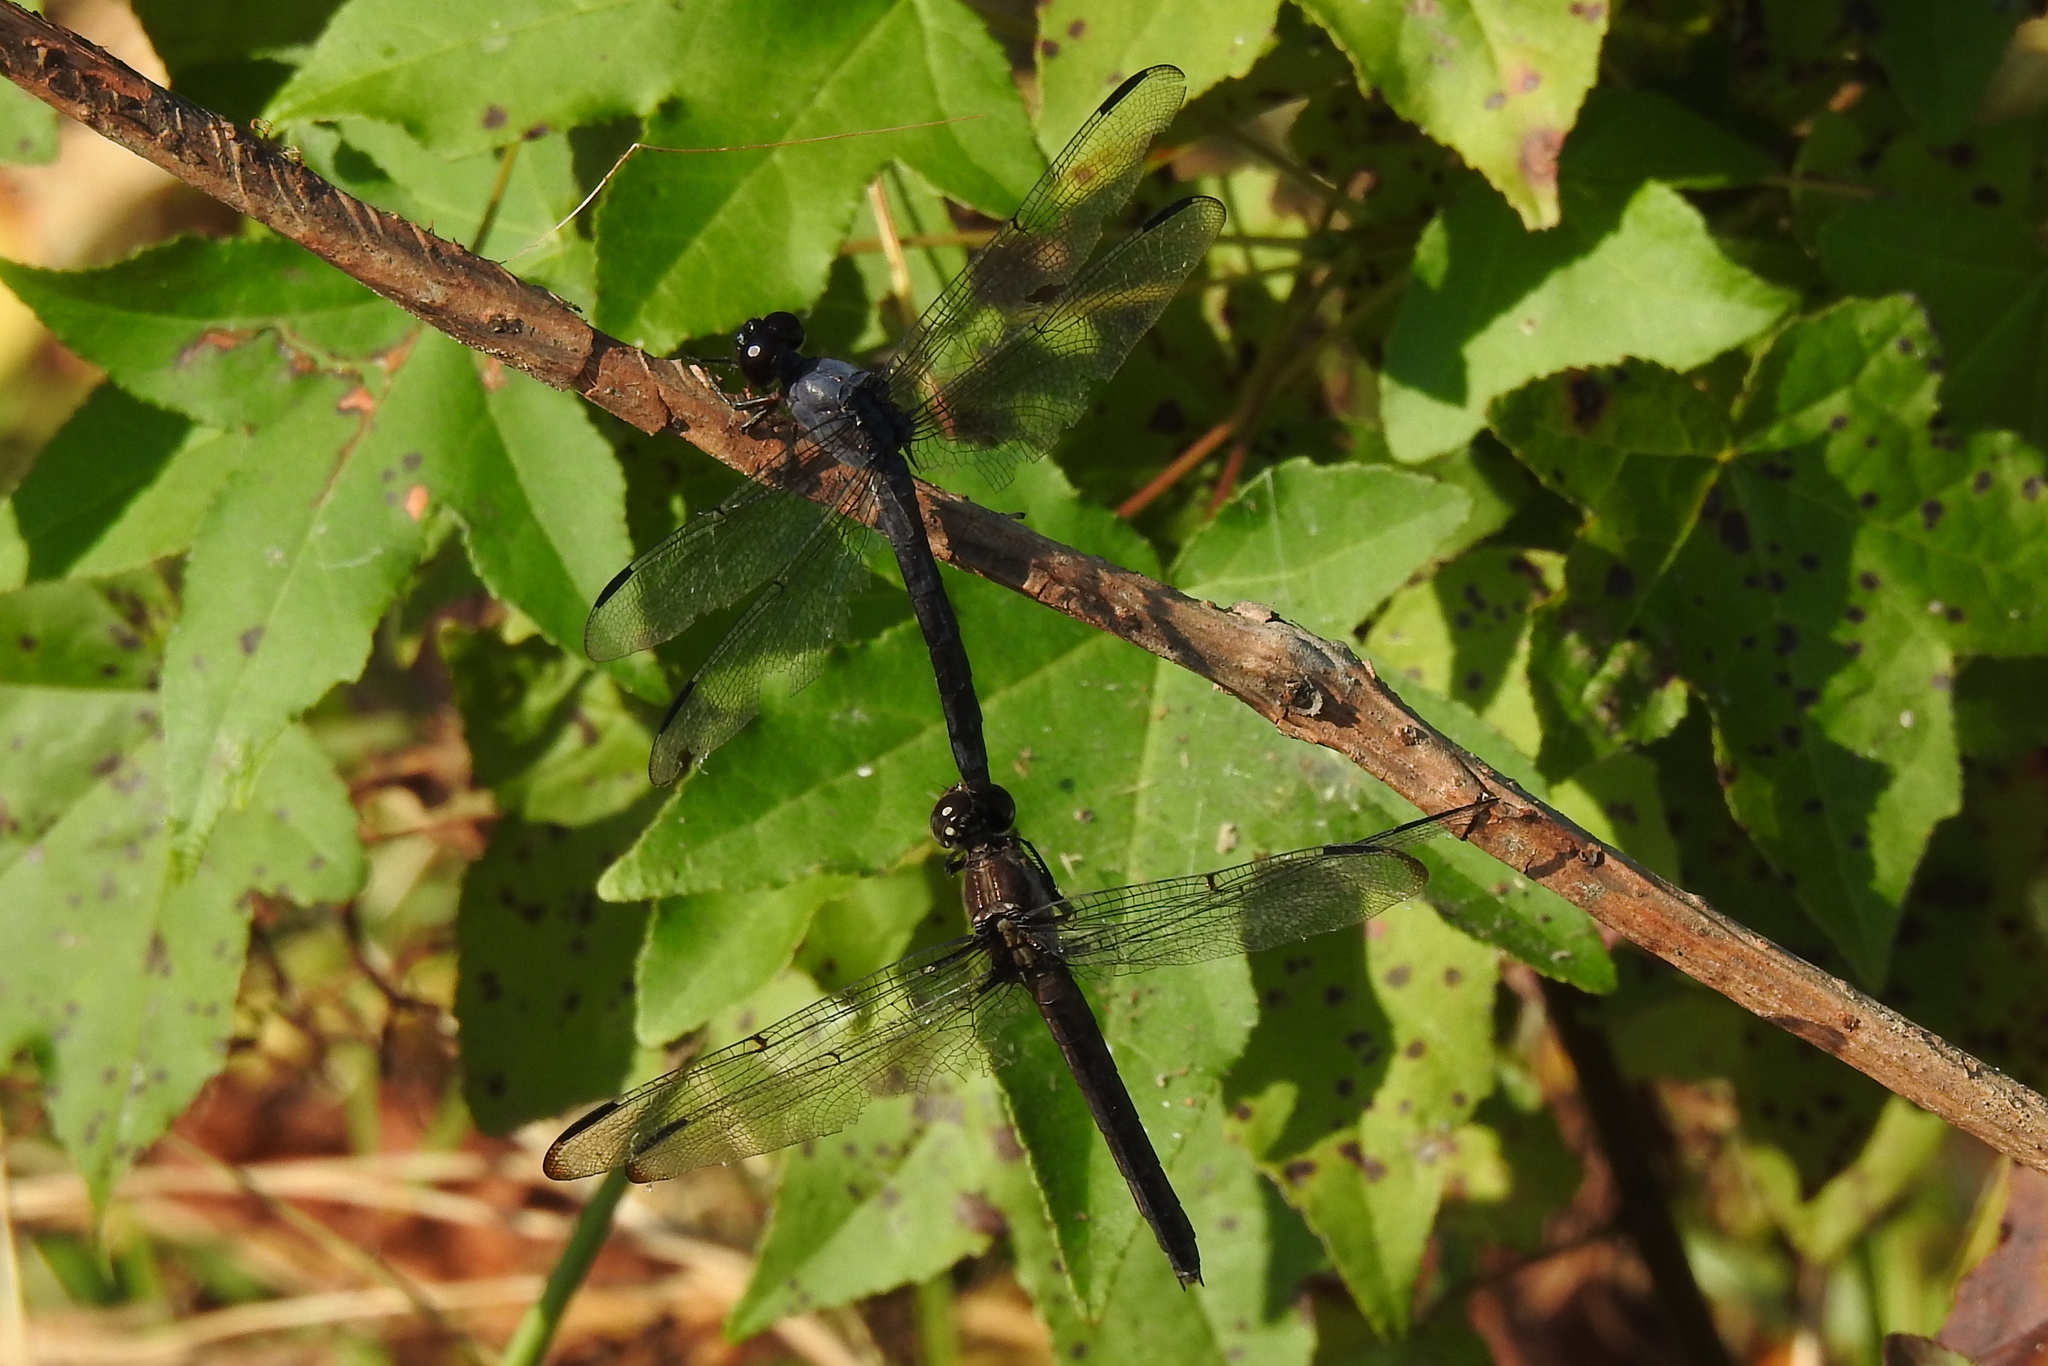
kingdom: Animalia
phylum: Arthropoda
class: Insecta
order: Odonata
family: Libellulidae
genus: Libellula
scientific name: Libellula incesta
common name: Slaty skimmer
